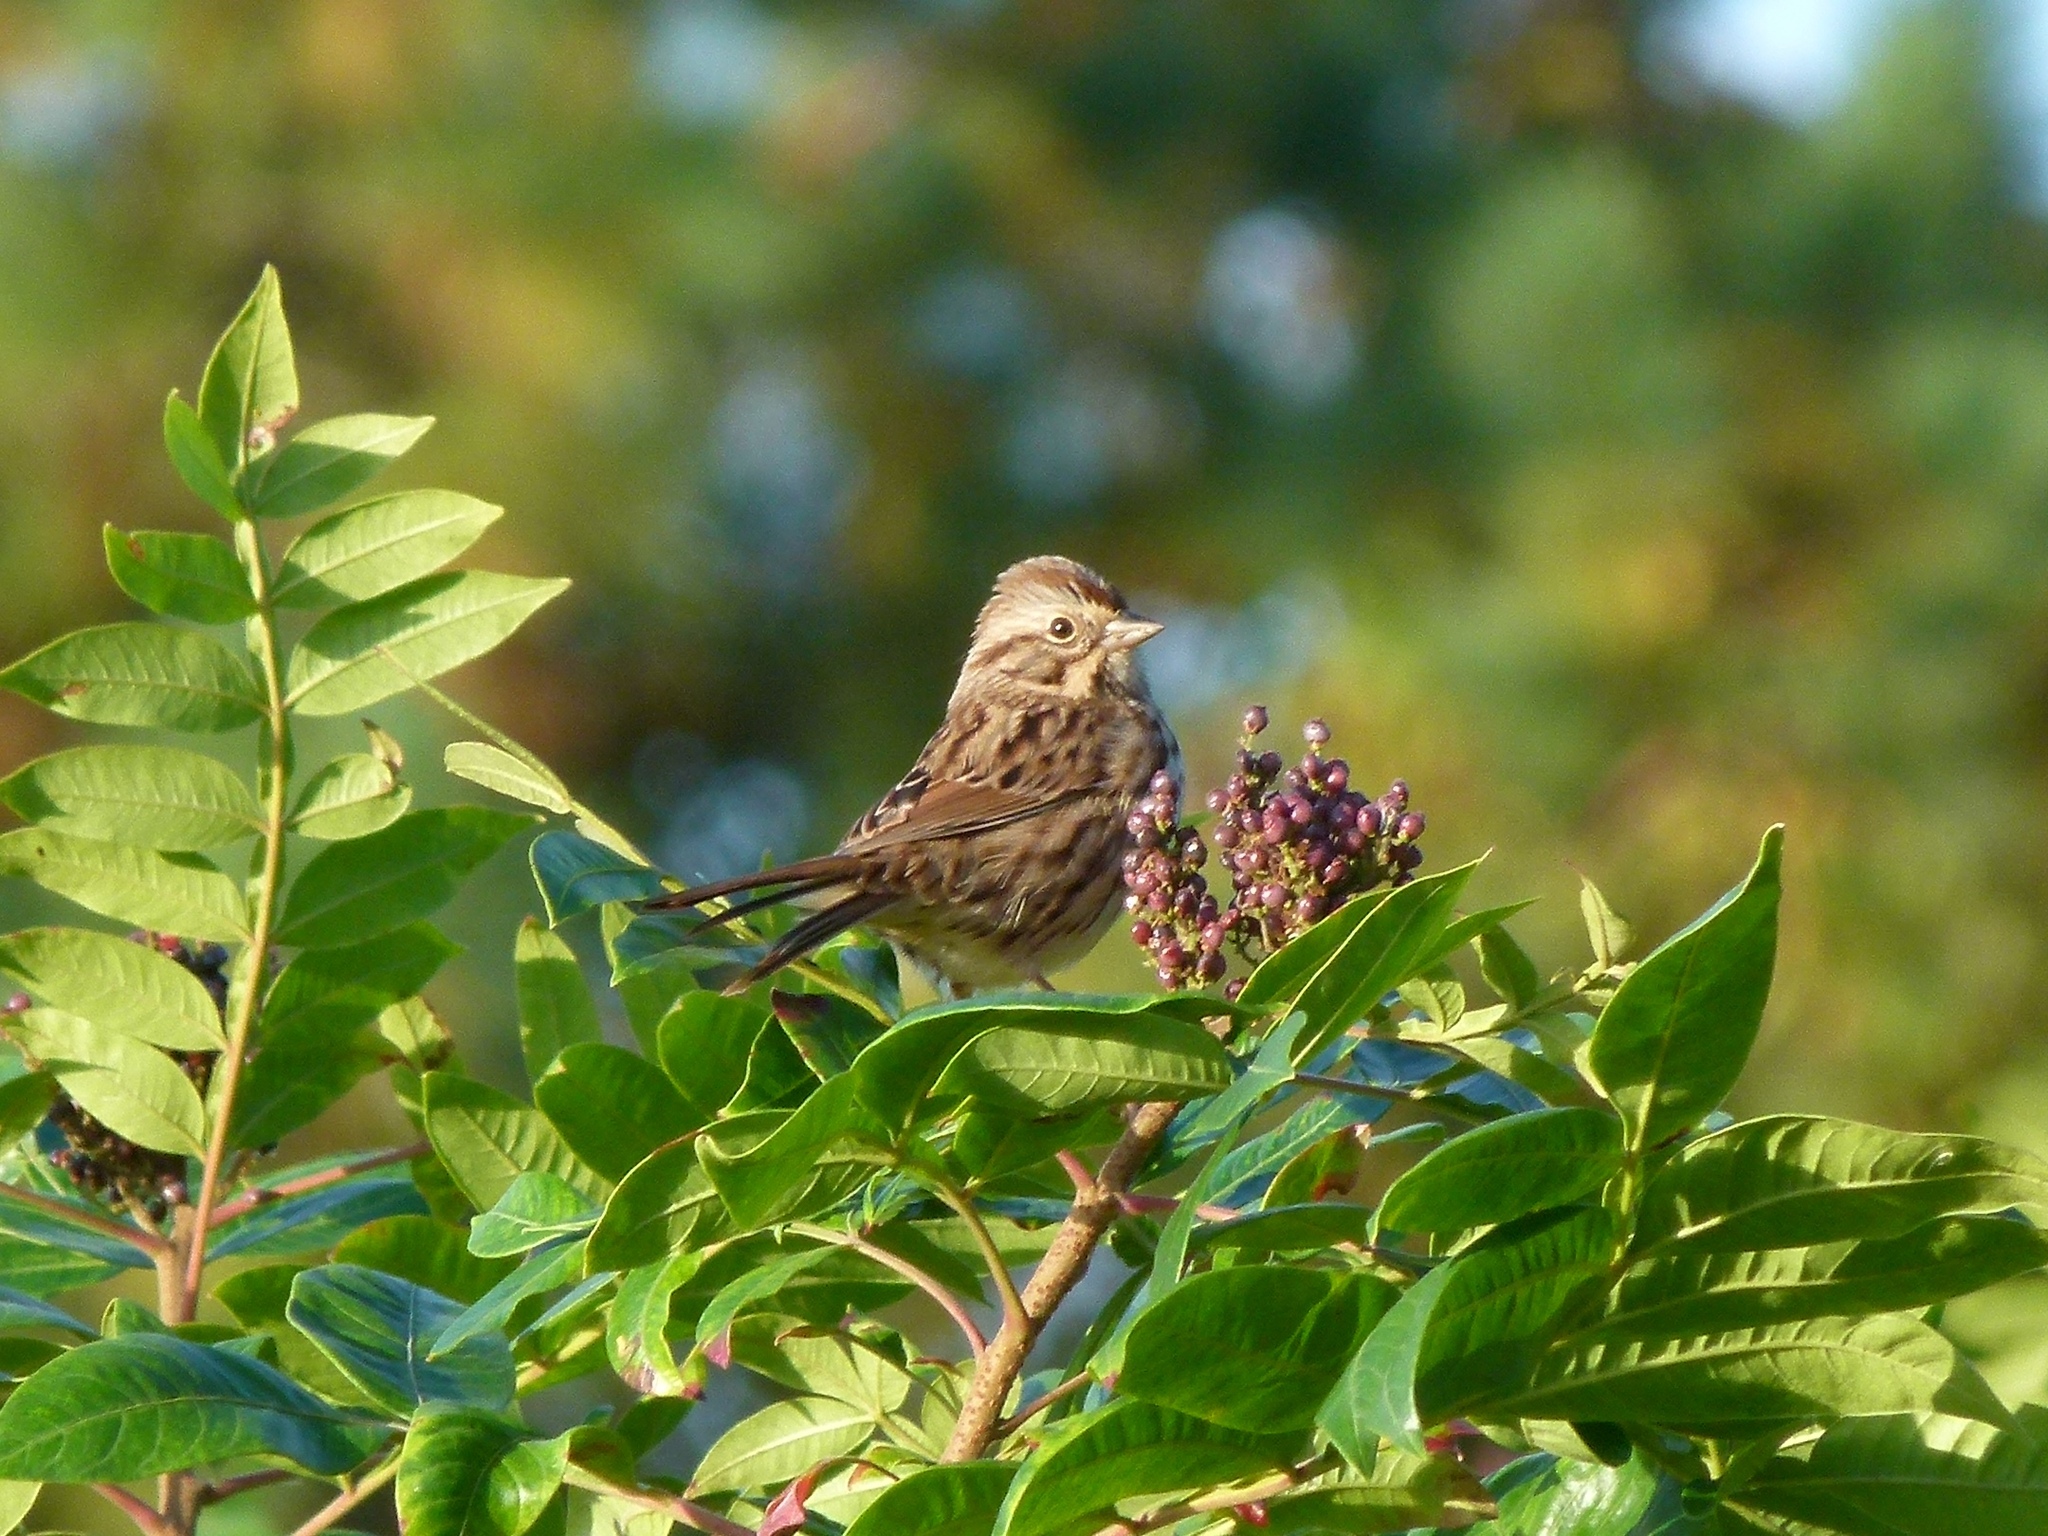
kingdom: Animalia
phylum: Chordata
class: Aves
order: Passeriformes
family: Passerellidae
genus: Melospiza
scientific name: Melospiza lincolnii
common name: Lincoln's sparrow
